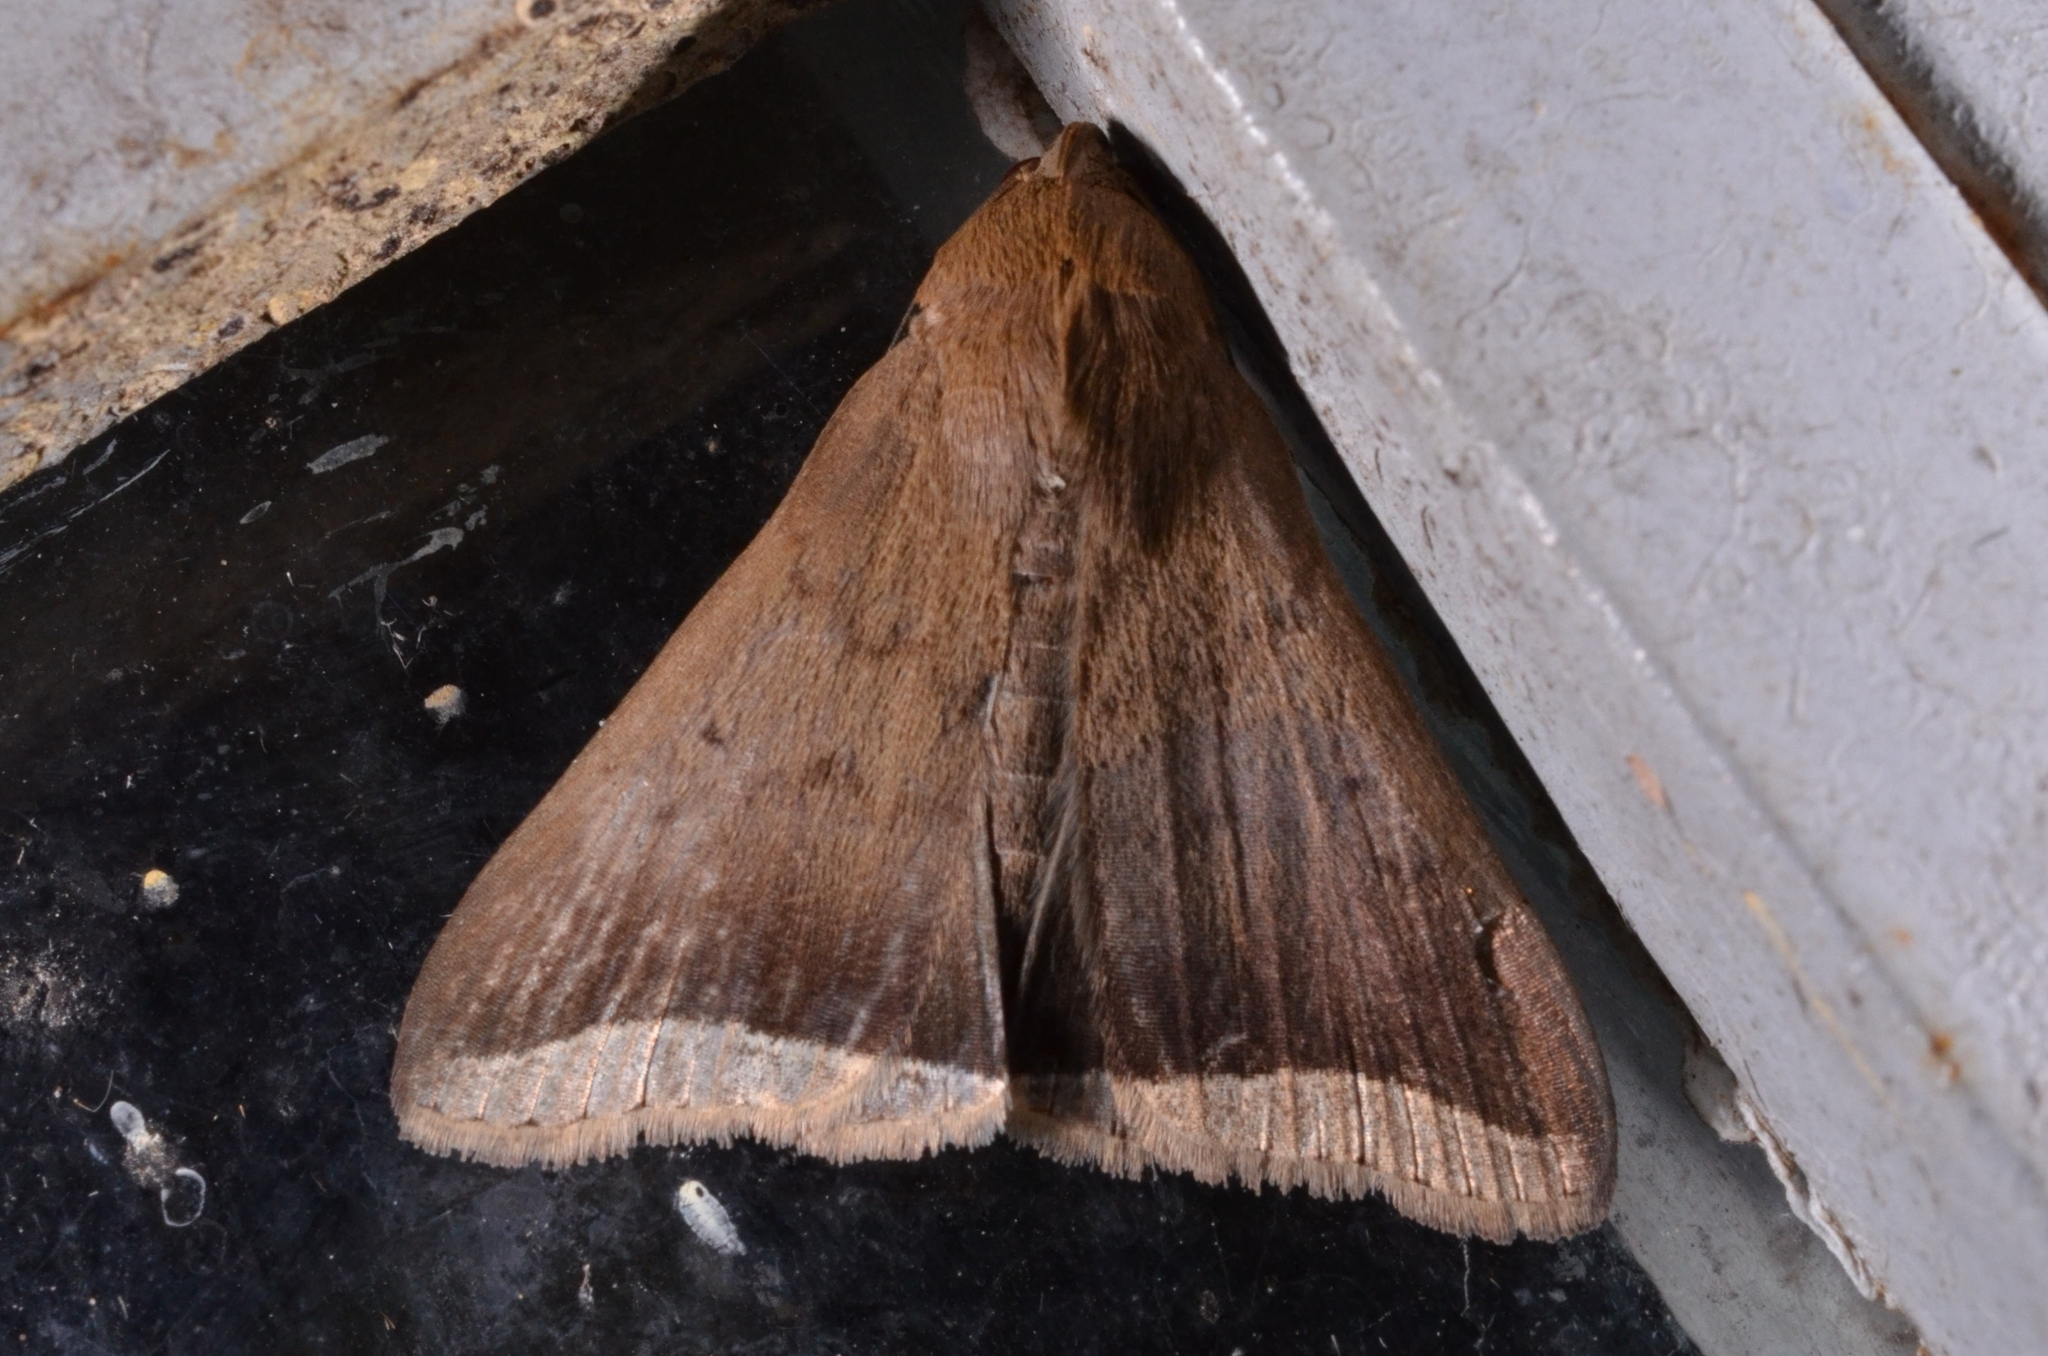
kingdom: Animalia
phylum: Arthropoda
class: Insecta
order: Lepidoptera
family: Erebidae
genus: Simplicia
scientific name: Simplicia bimarginata
